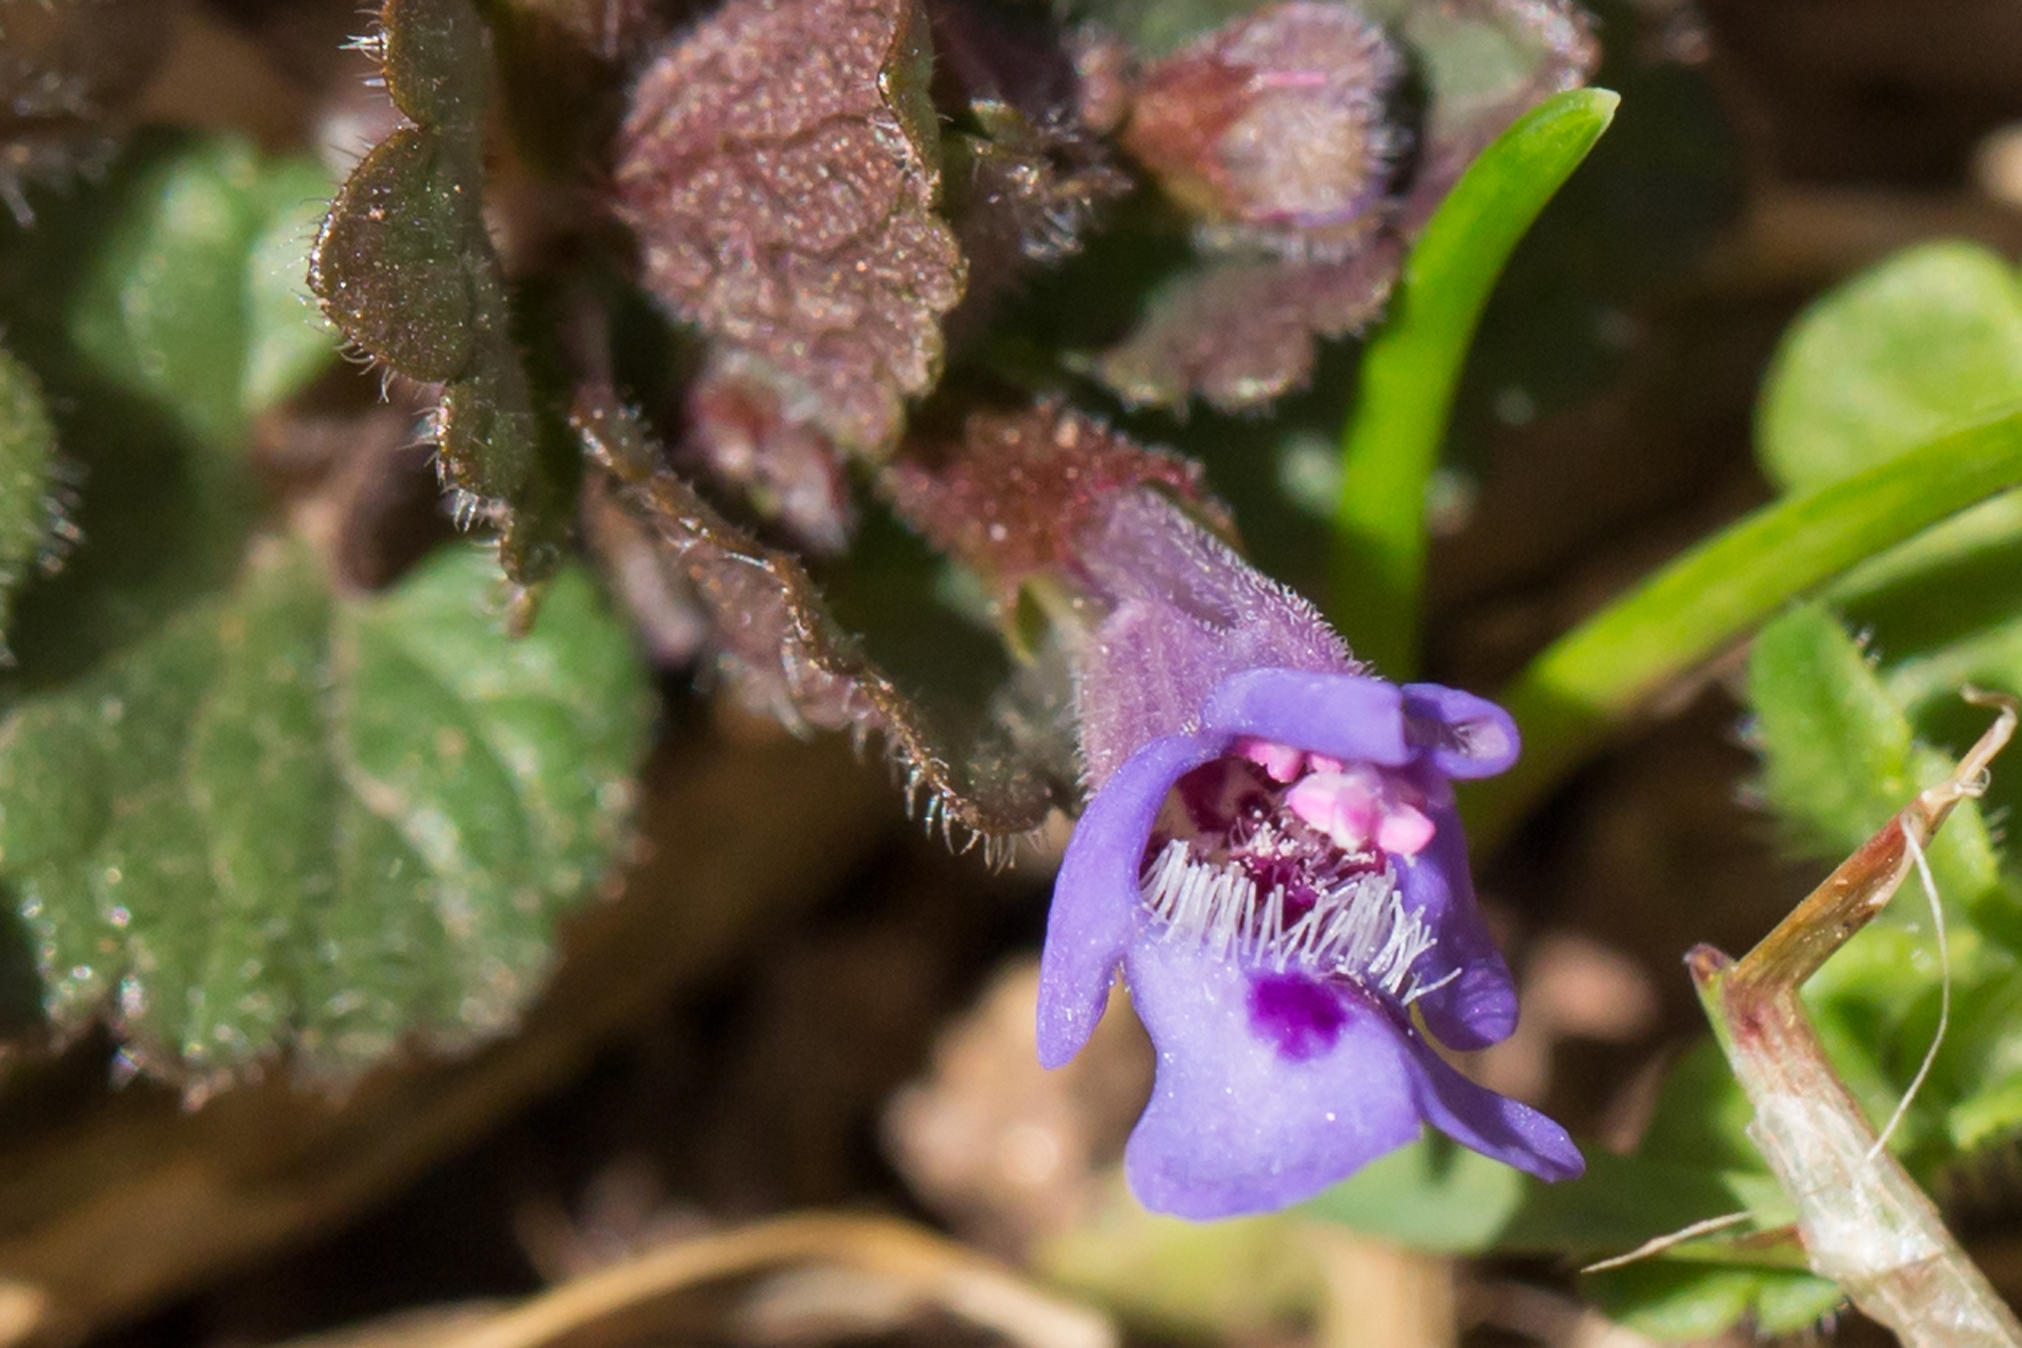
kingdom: Plantae
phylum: Tracheophyta
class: Magnoliopsida
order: Lamiales
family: Lamiaceae
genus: Glechoma
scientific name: Glechoma hederacea
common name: Ground ivy
